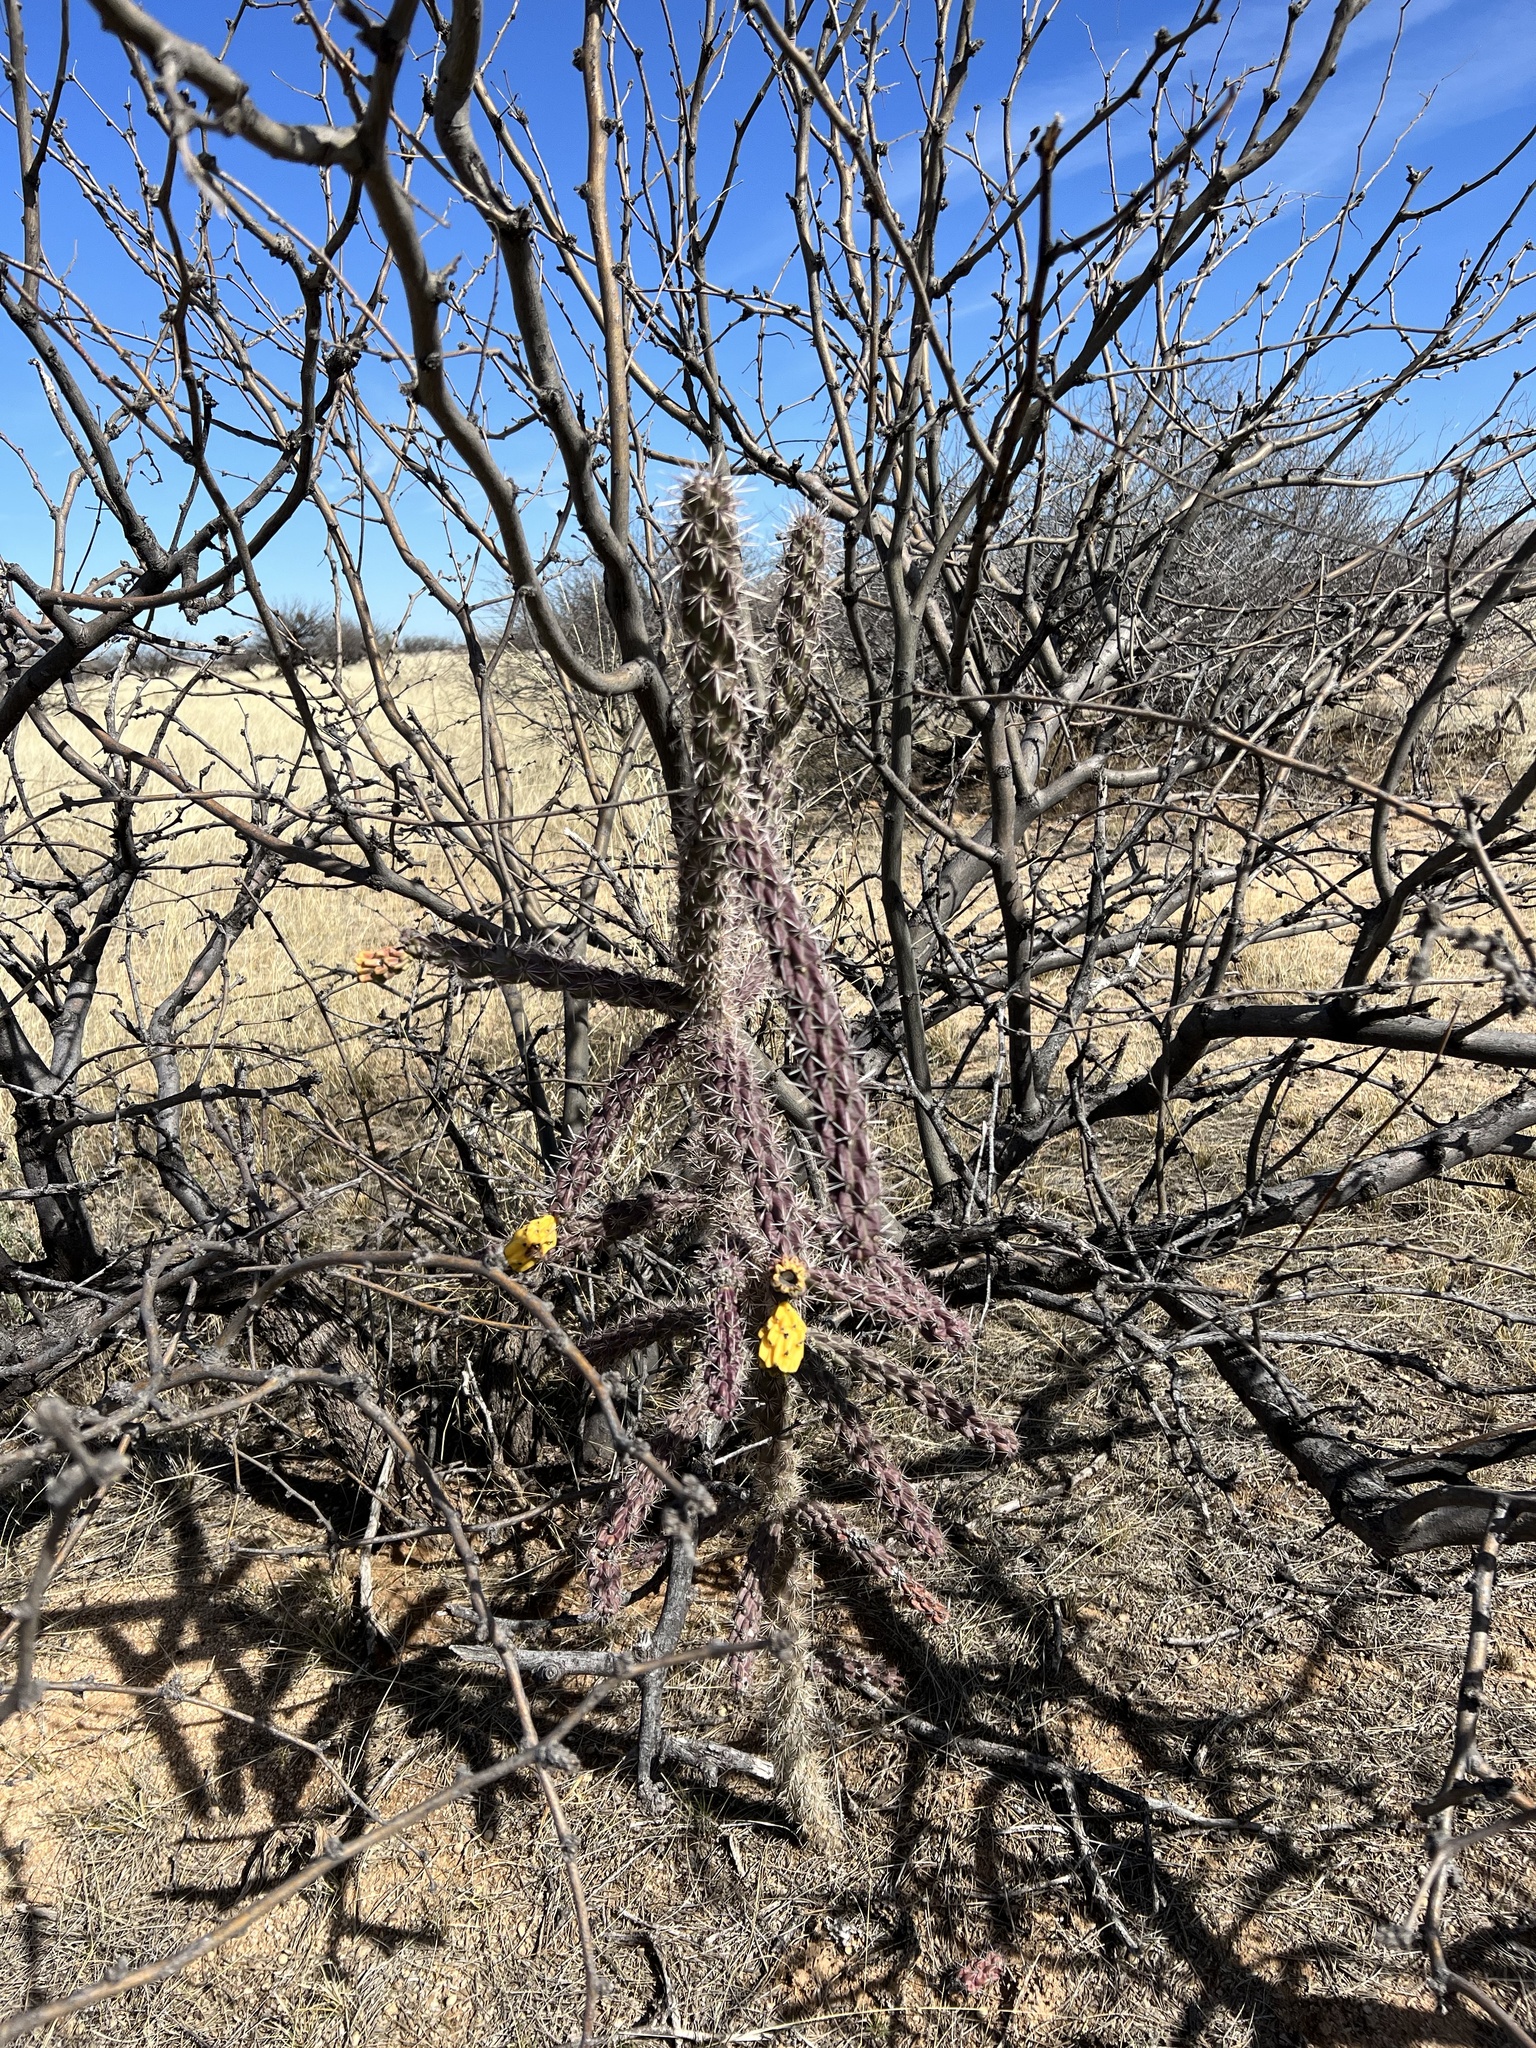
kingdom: Plantae
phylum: Tracheophyta
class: Magnoliopsida
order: Caryophyllales
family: Cactaceae
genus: Cylindropuntia
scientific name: Cylindropuntia imbricata
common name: Candelabrum cactus
